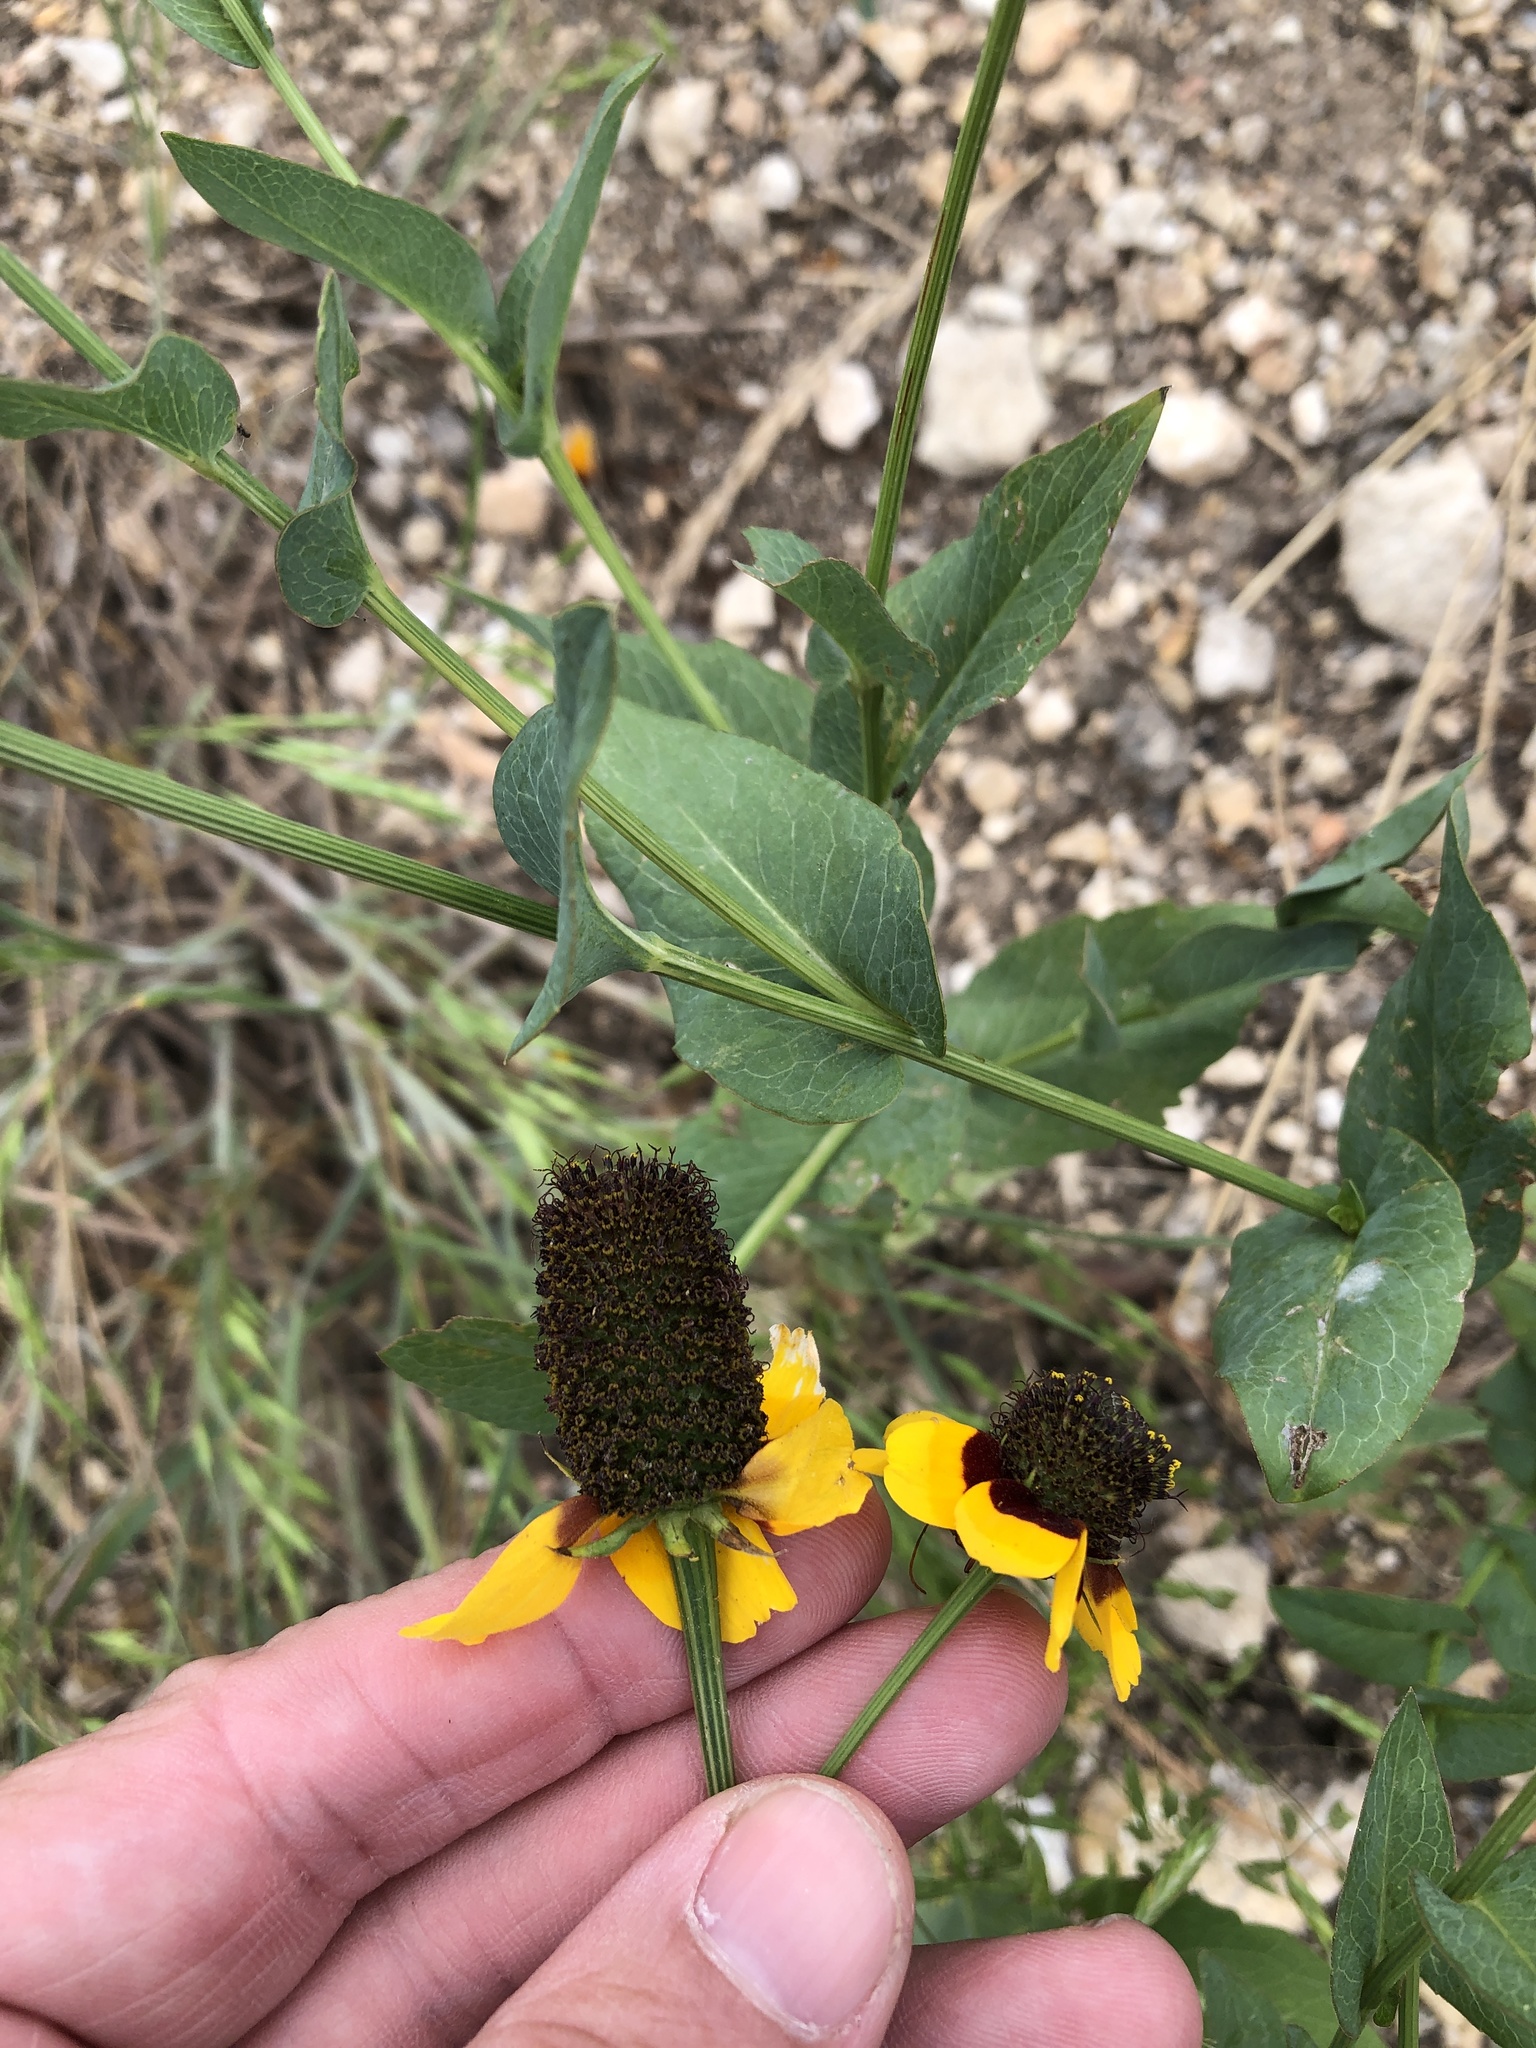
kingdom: Plantae
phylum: Tracheophyta
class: Magnoliopsida
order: Asterales
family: Asteraceae
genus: Rudbeckia
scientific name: Rudbeckia amplexicaulis
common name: Clasping-leaf coneflower
